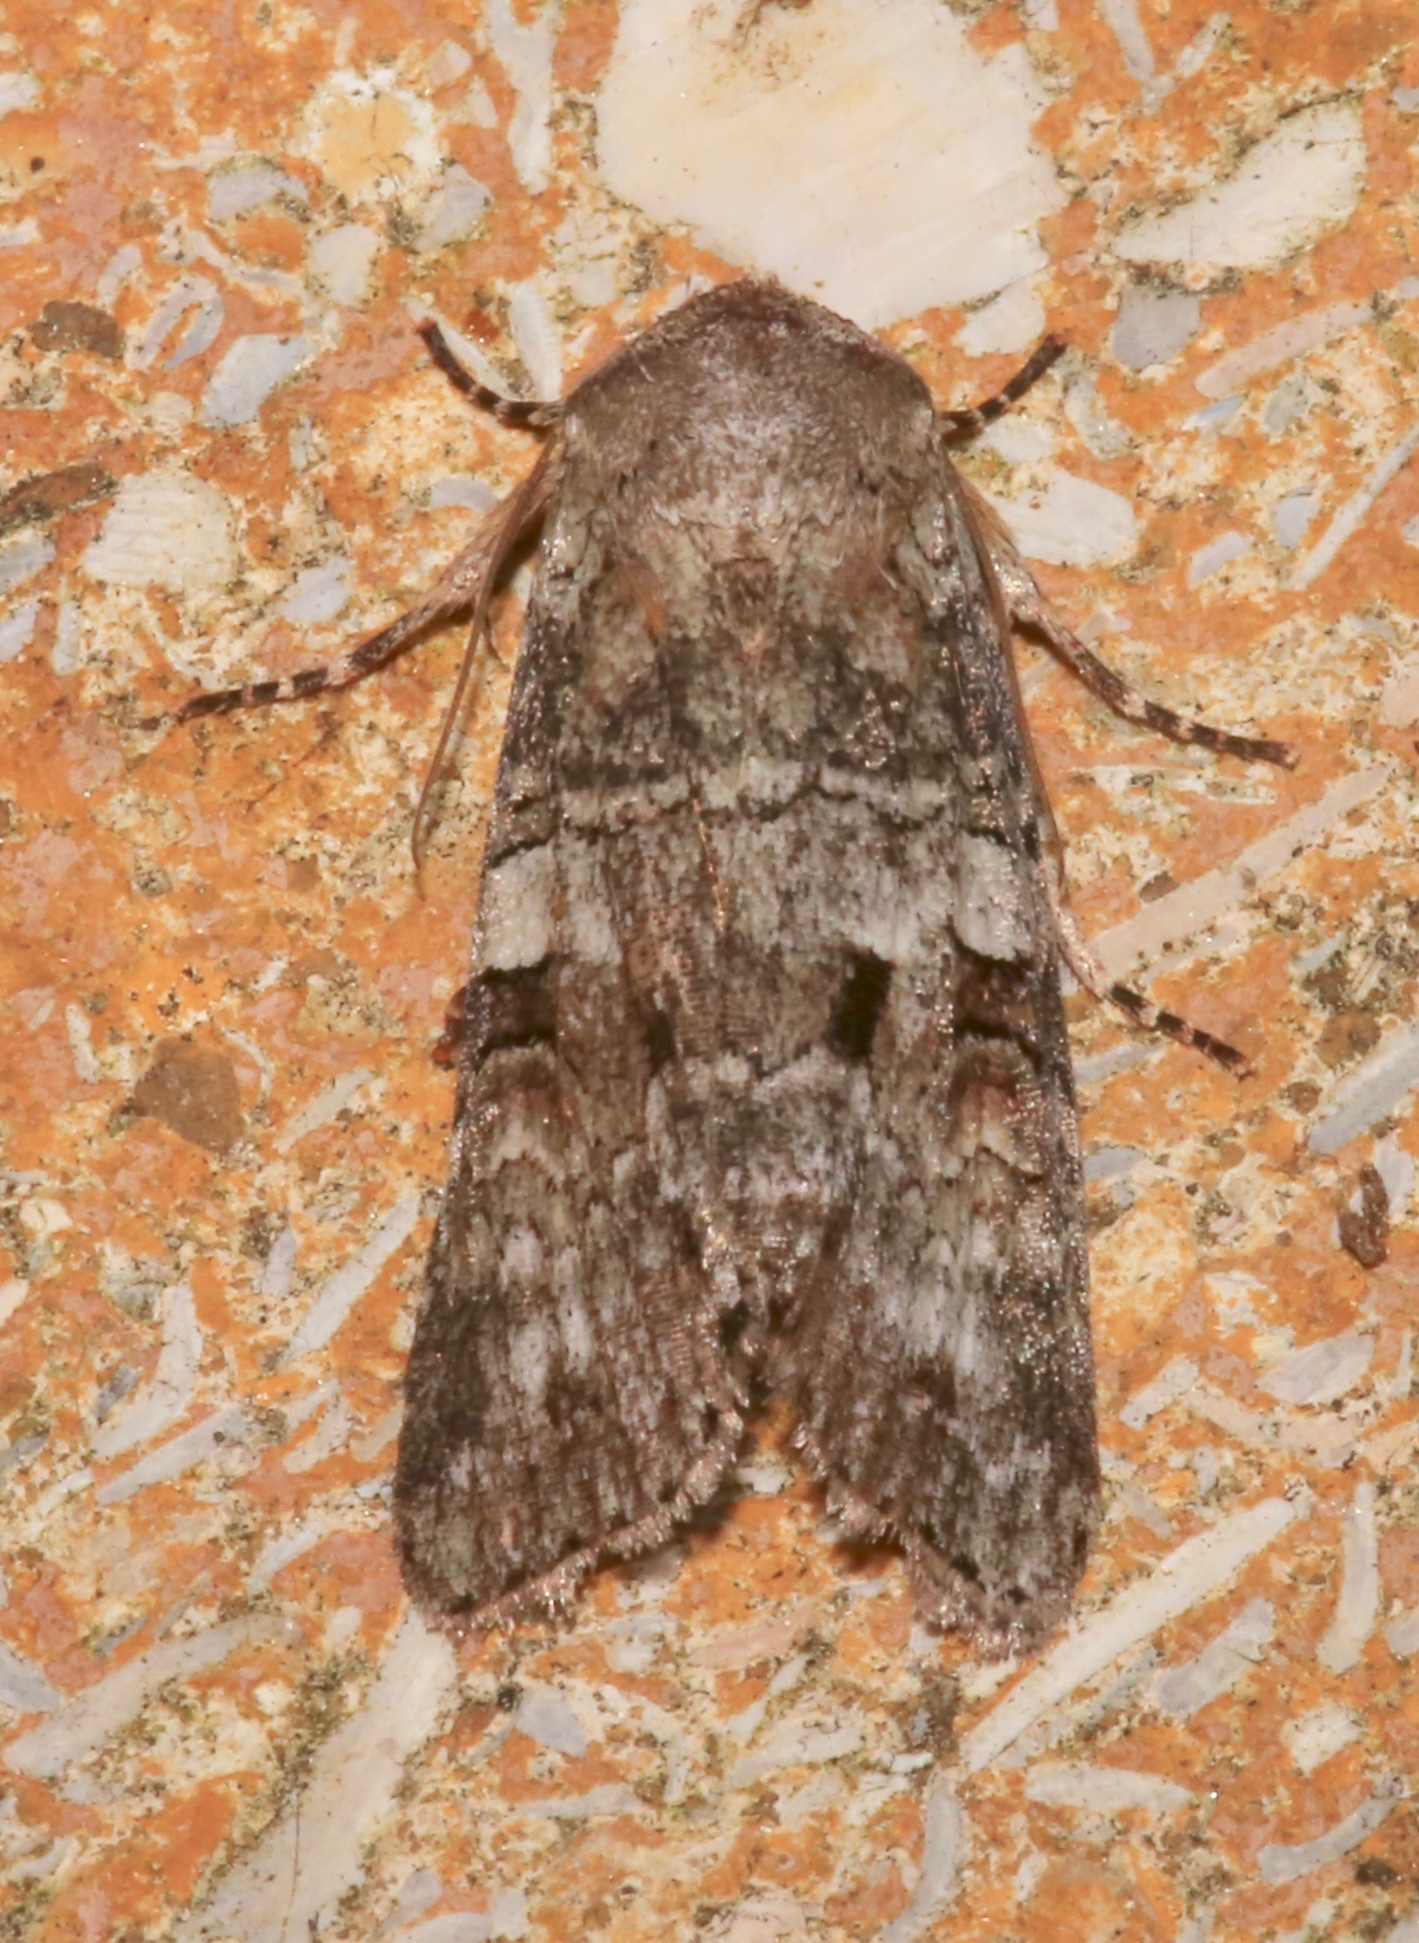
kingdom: Animalia
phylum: Arthropoda
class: Insecta
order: Lepidoptera
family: Noctuidae
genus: Egira
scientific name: Egira alternans
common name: Alternate woodling
